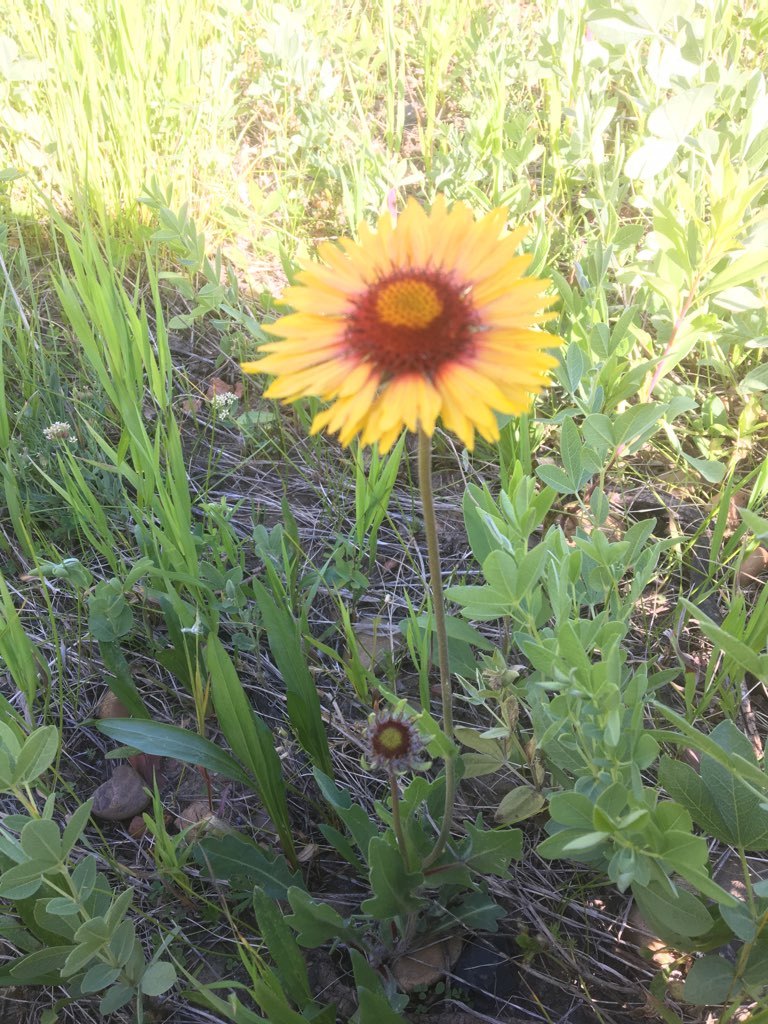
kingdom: Plantae
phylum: Tracheophyta
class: Magnoliopsida
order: Asterales
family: Asteraceae
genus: Gaillardia
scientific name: Gaillardia aristata
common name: Blanket-flower
